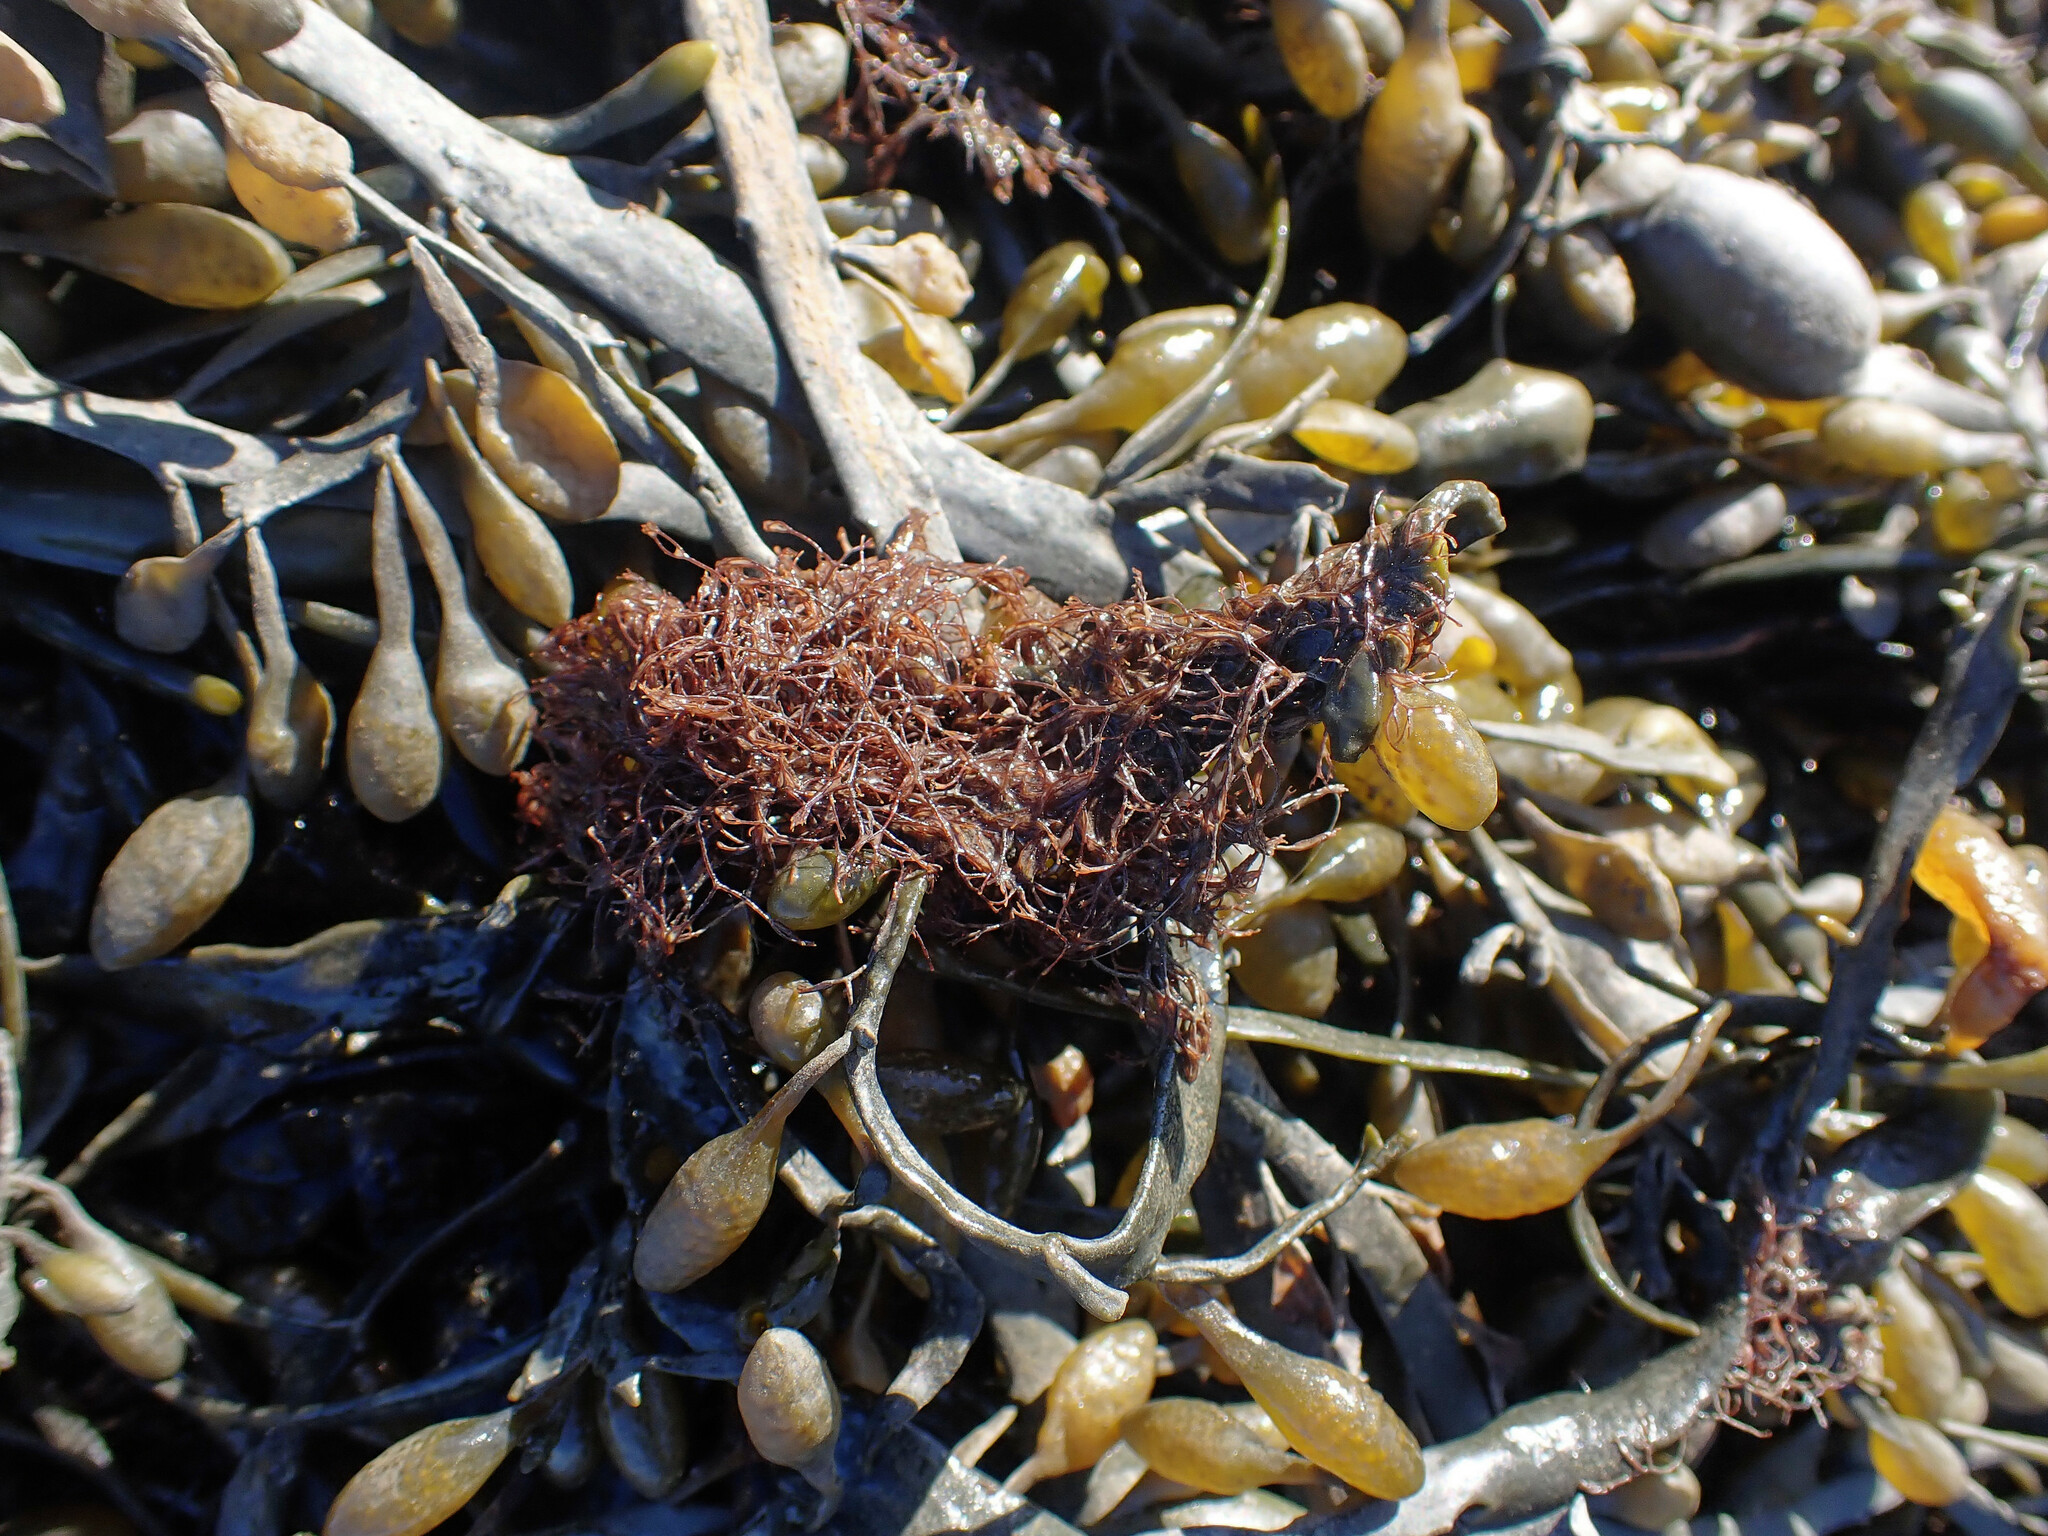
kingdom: Plantae
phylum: Rhodophyta
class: Florideophyceae
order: Ceramiales
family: Rhodomelaceae
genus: Vertebrata
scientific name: Vertebrata lanosa
